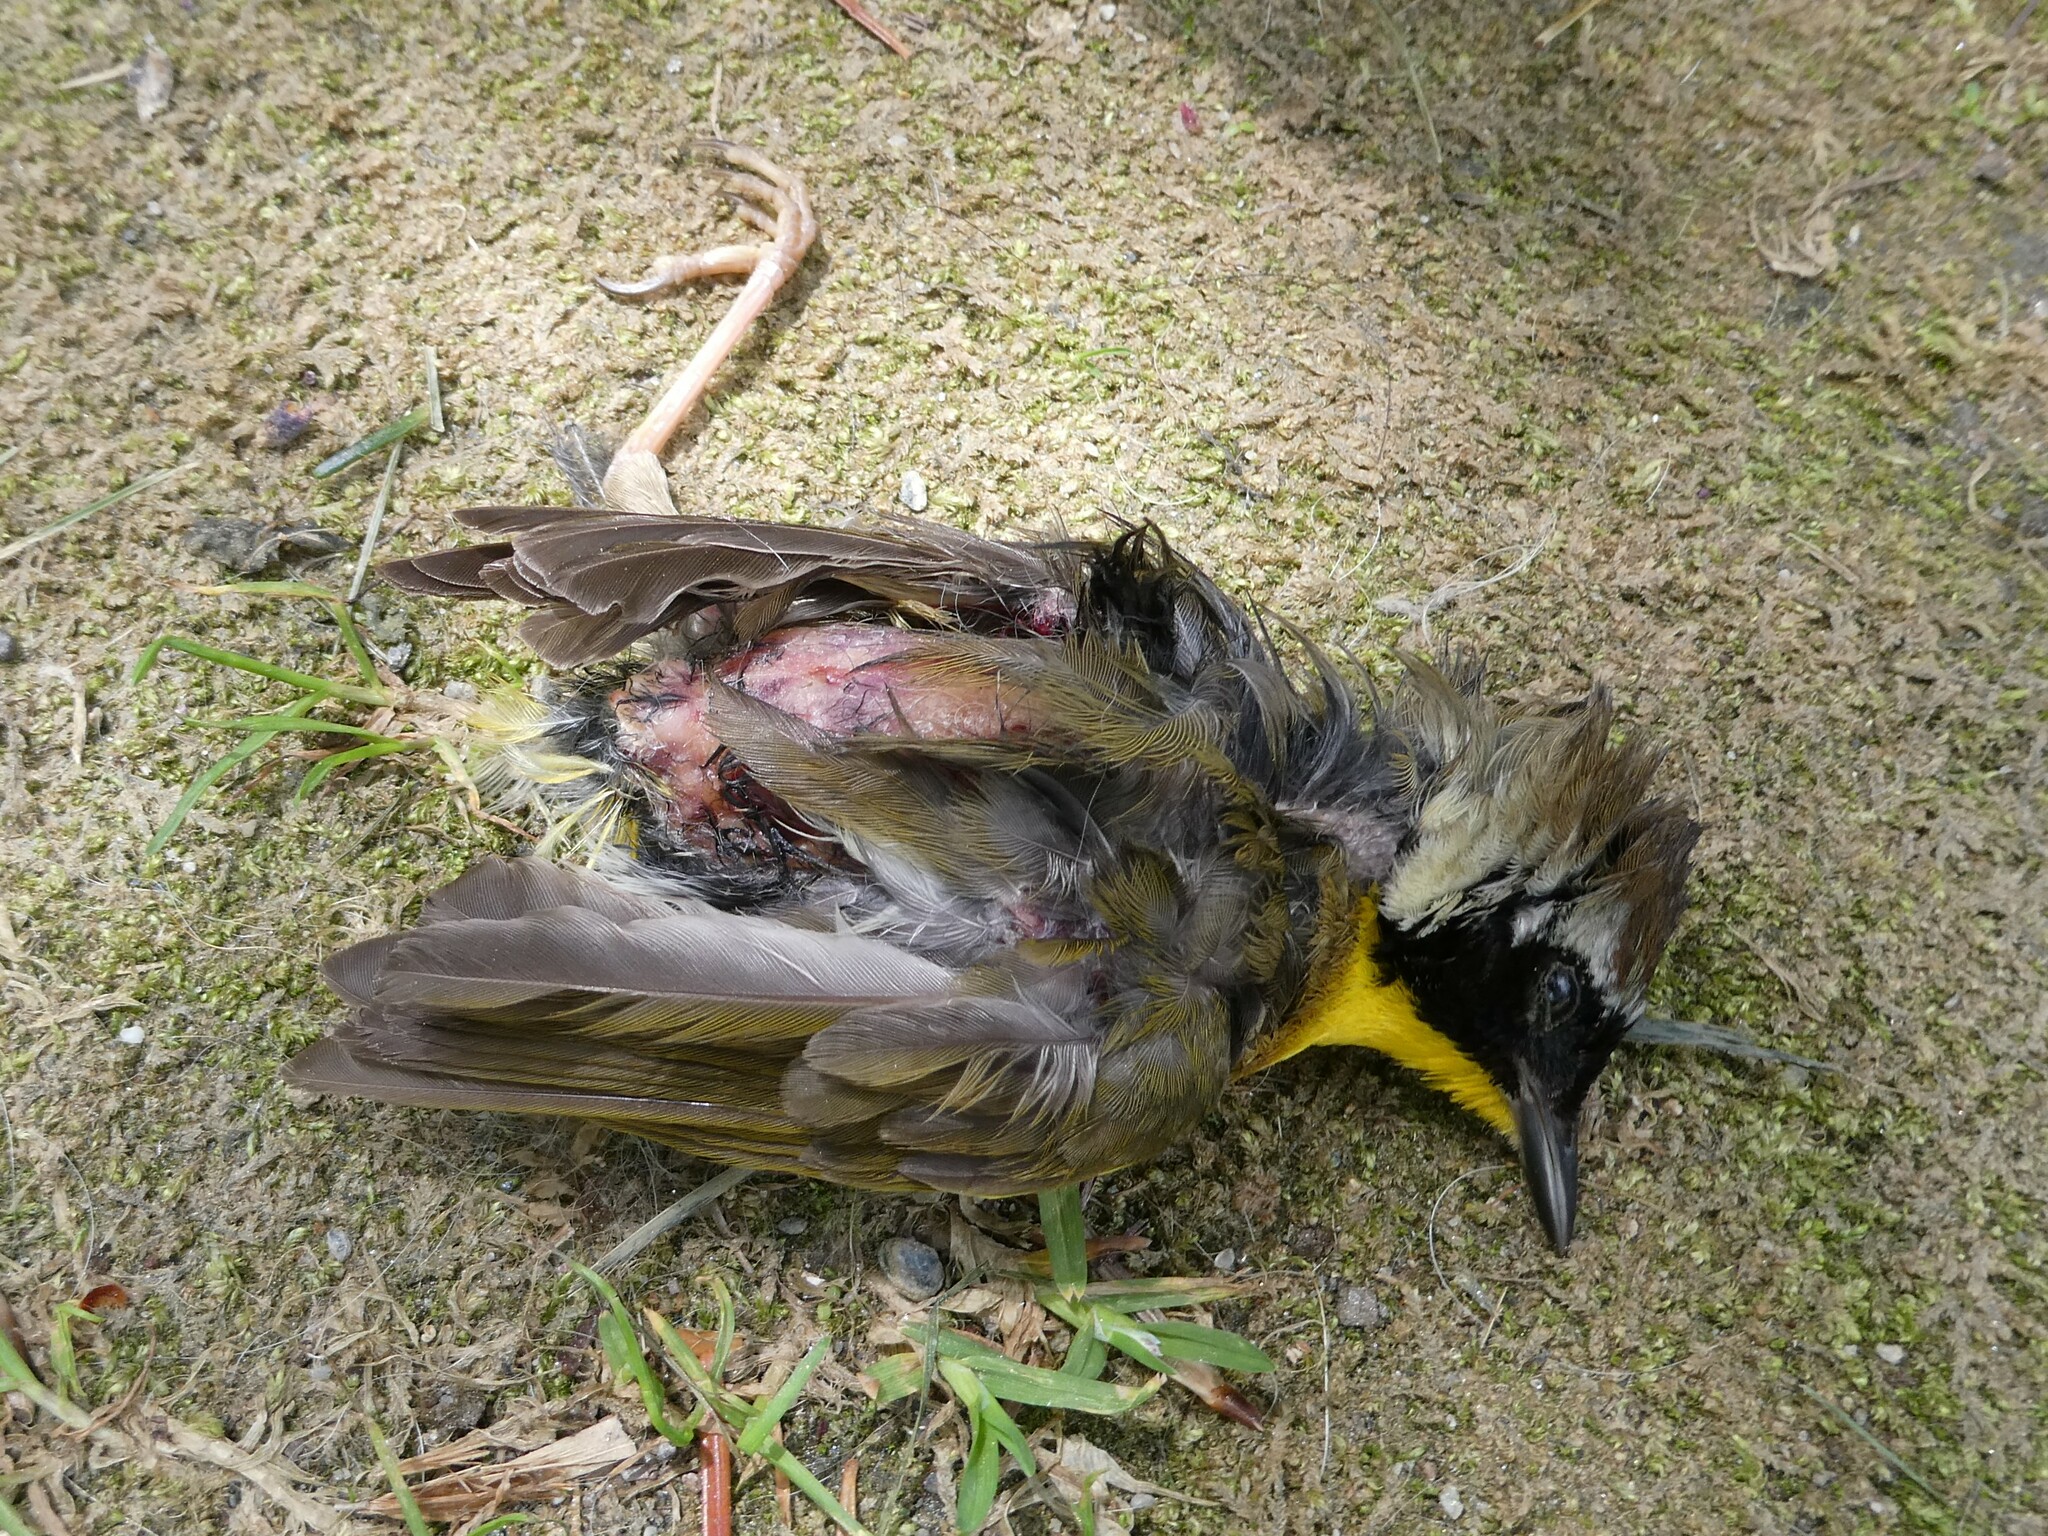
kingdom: Animalia
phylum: Chordata
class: Aves
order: Passeriformes
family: Parulidae
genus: Geothlypis
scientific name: Geothlypis trichas
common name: Common yellowthroat
